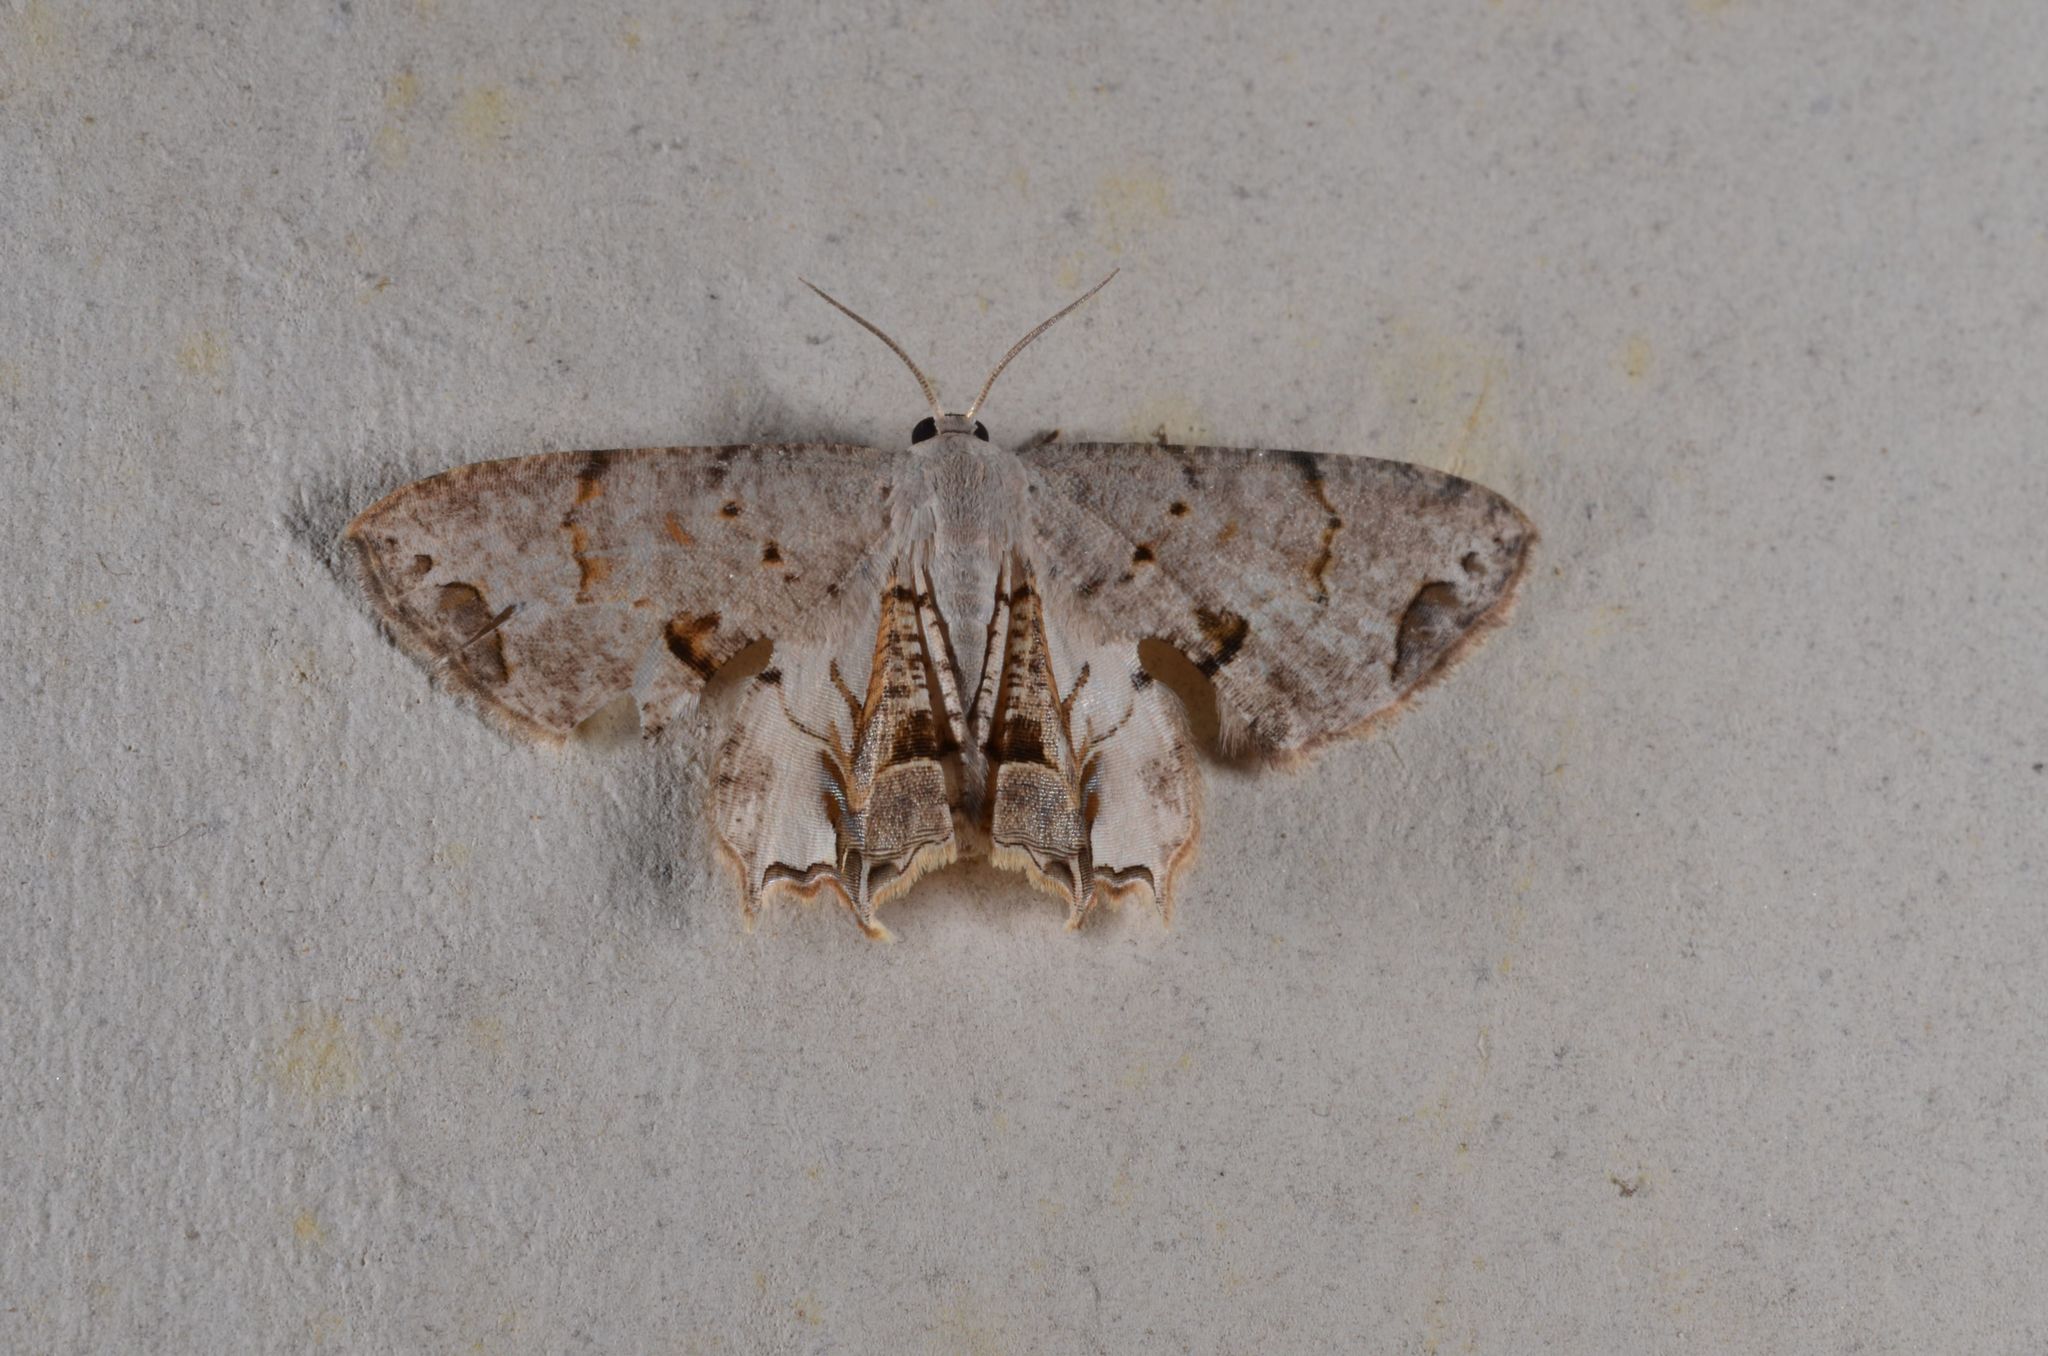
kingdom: Animalia
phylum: Arthropoda
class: Insecta
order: Lepidoptera
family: Uraniidae
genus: Dysaethria
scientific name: Dysaethria lilacina
